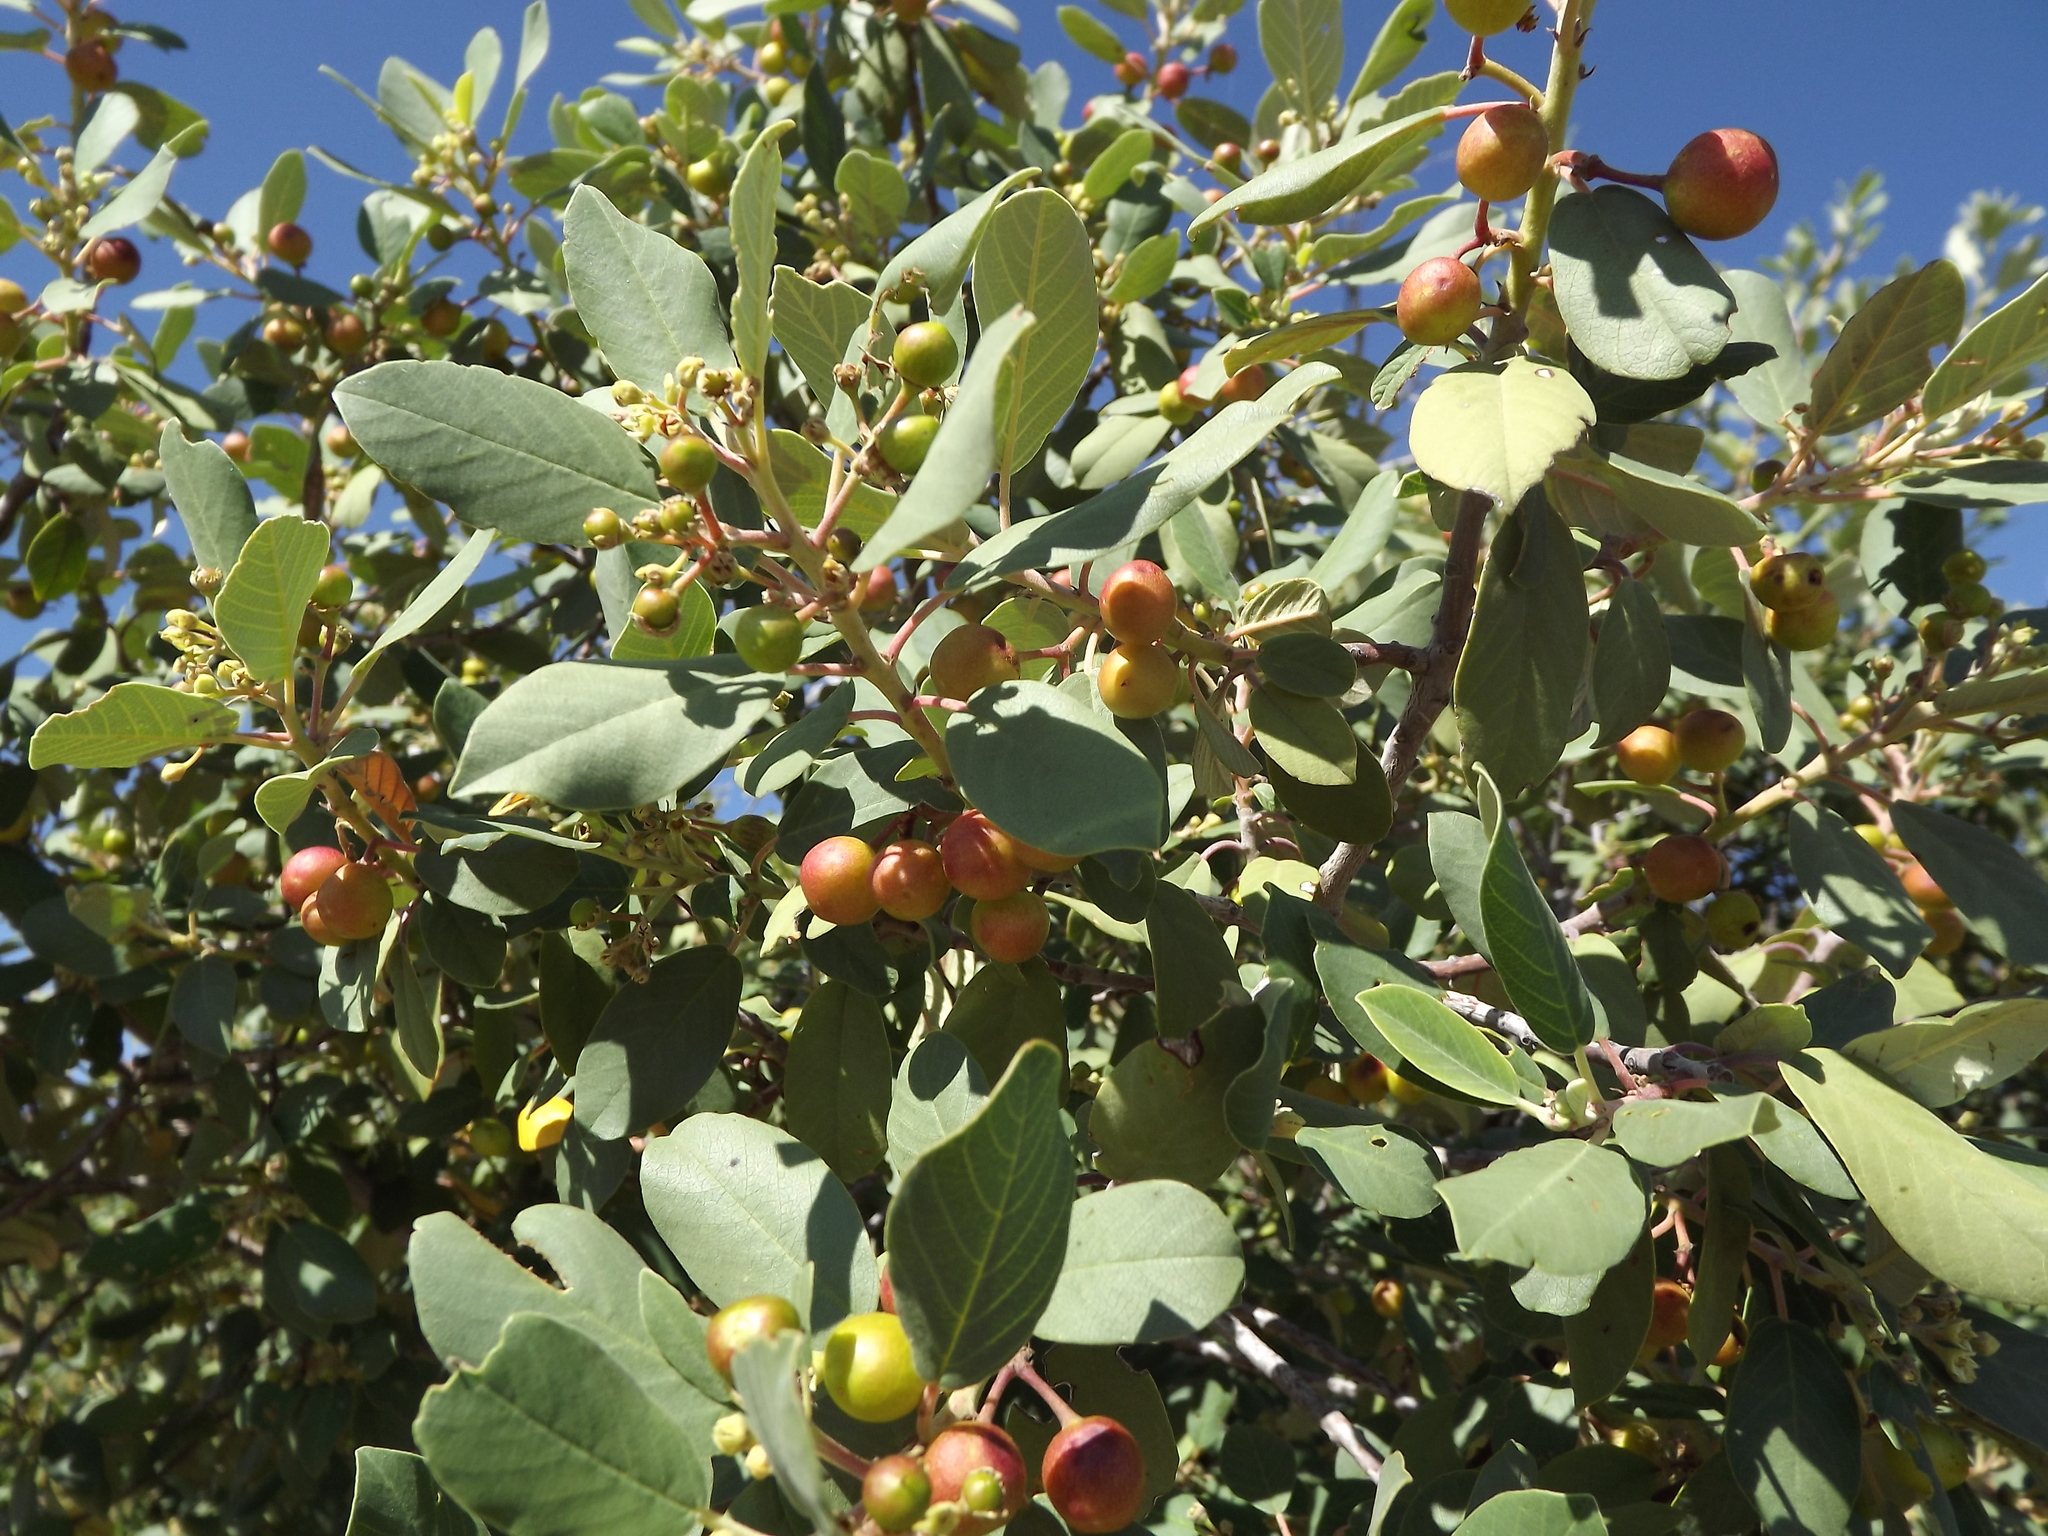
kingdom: Plantae
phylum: Tracheophyta
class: Magnoliopsida
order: Rosales
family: Rhamnaceae
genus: Frangula
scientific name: Frangula californica
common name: California buckthorn
